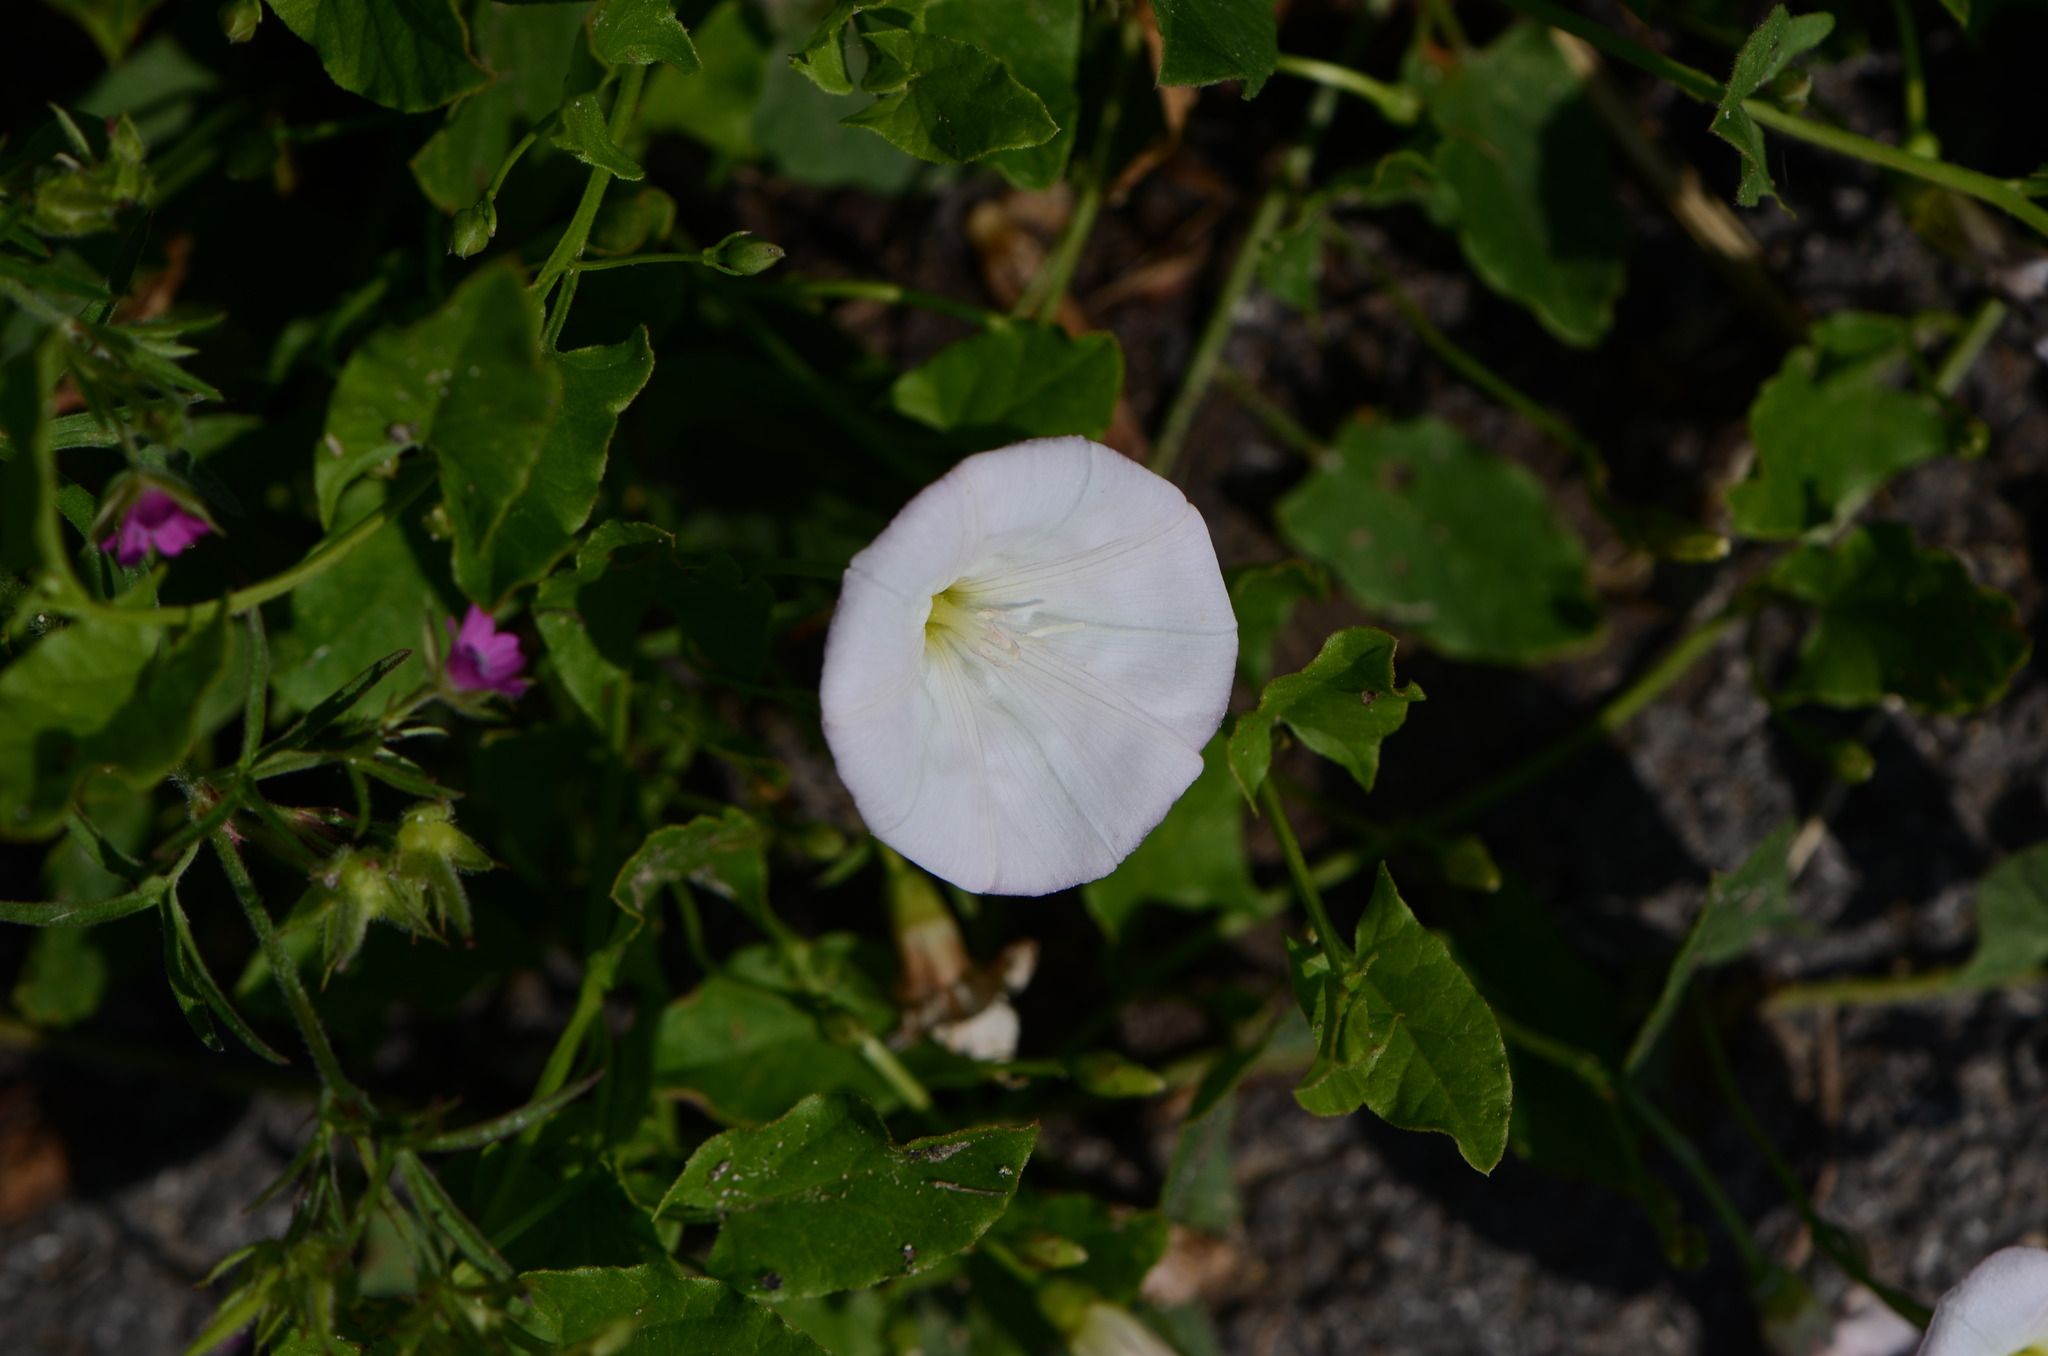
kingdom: Plantae
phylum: Tracheophyta
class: Magnoliopsida
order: Solanales
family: Convolvulaceae
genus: Convolvulus
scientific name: Convolvulus arvensis
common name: Field bindweed
